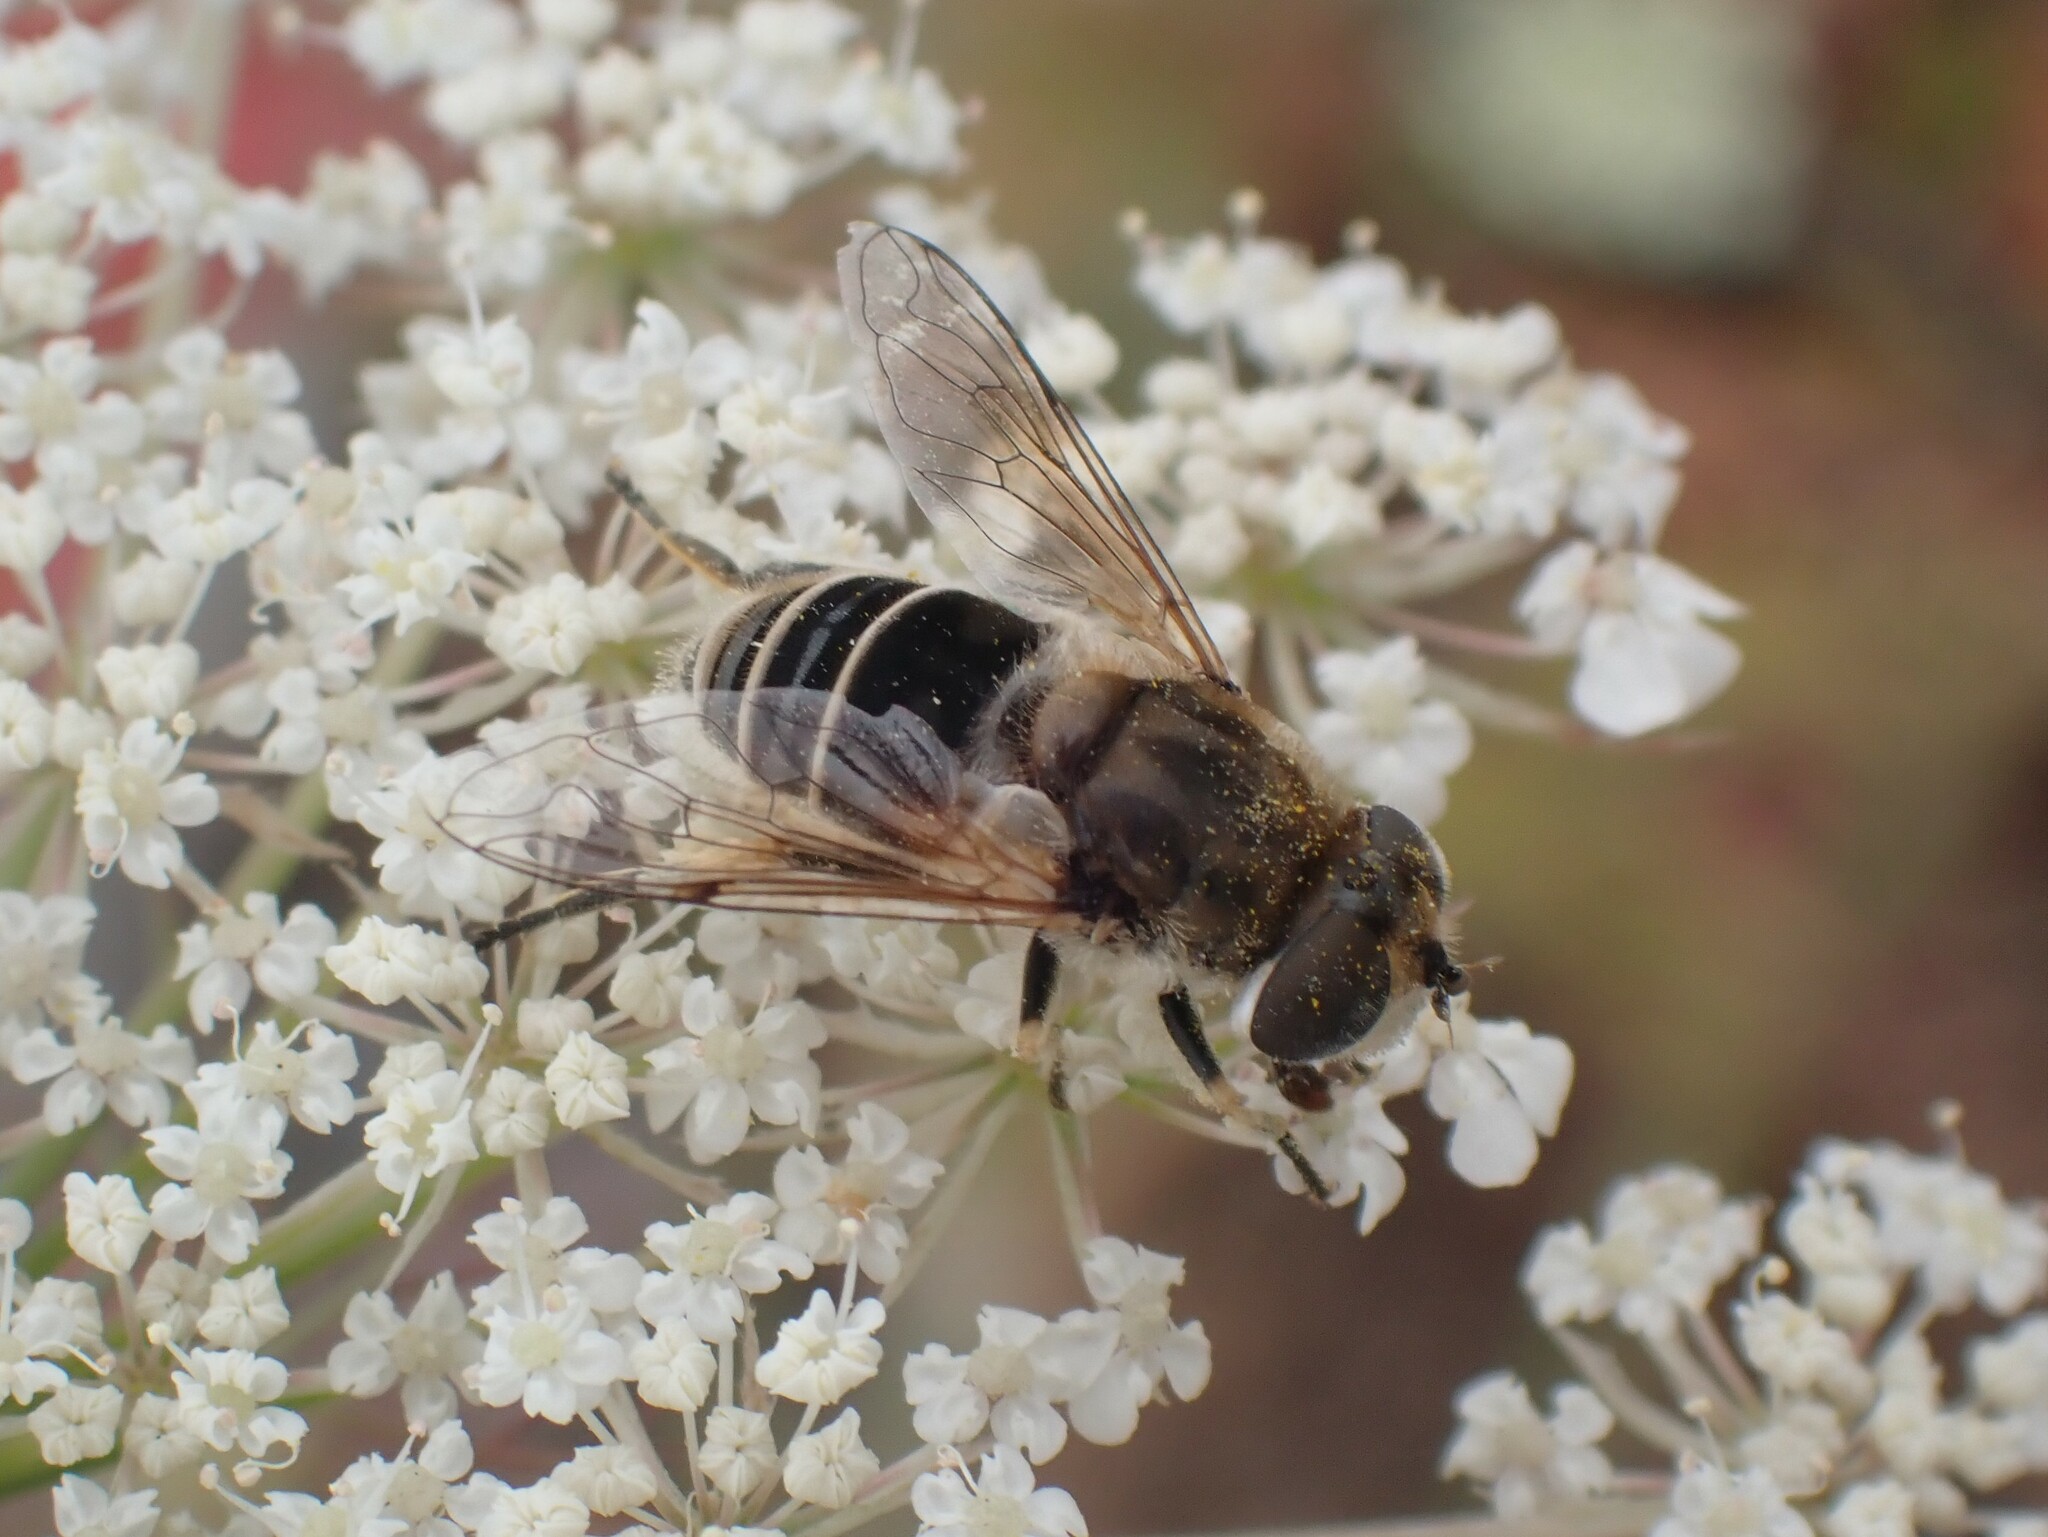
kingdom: Animalia
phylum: Arthropoda
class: Insecta
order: Diptera
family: Syrphidae
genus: Eristalis
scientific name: Eristalis arbustorum
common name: Hover fly
